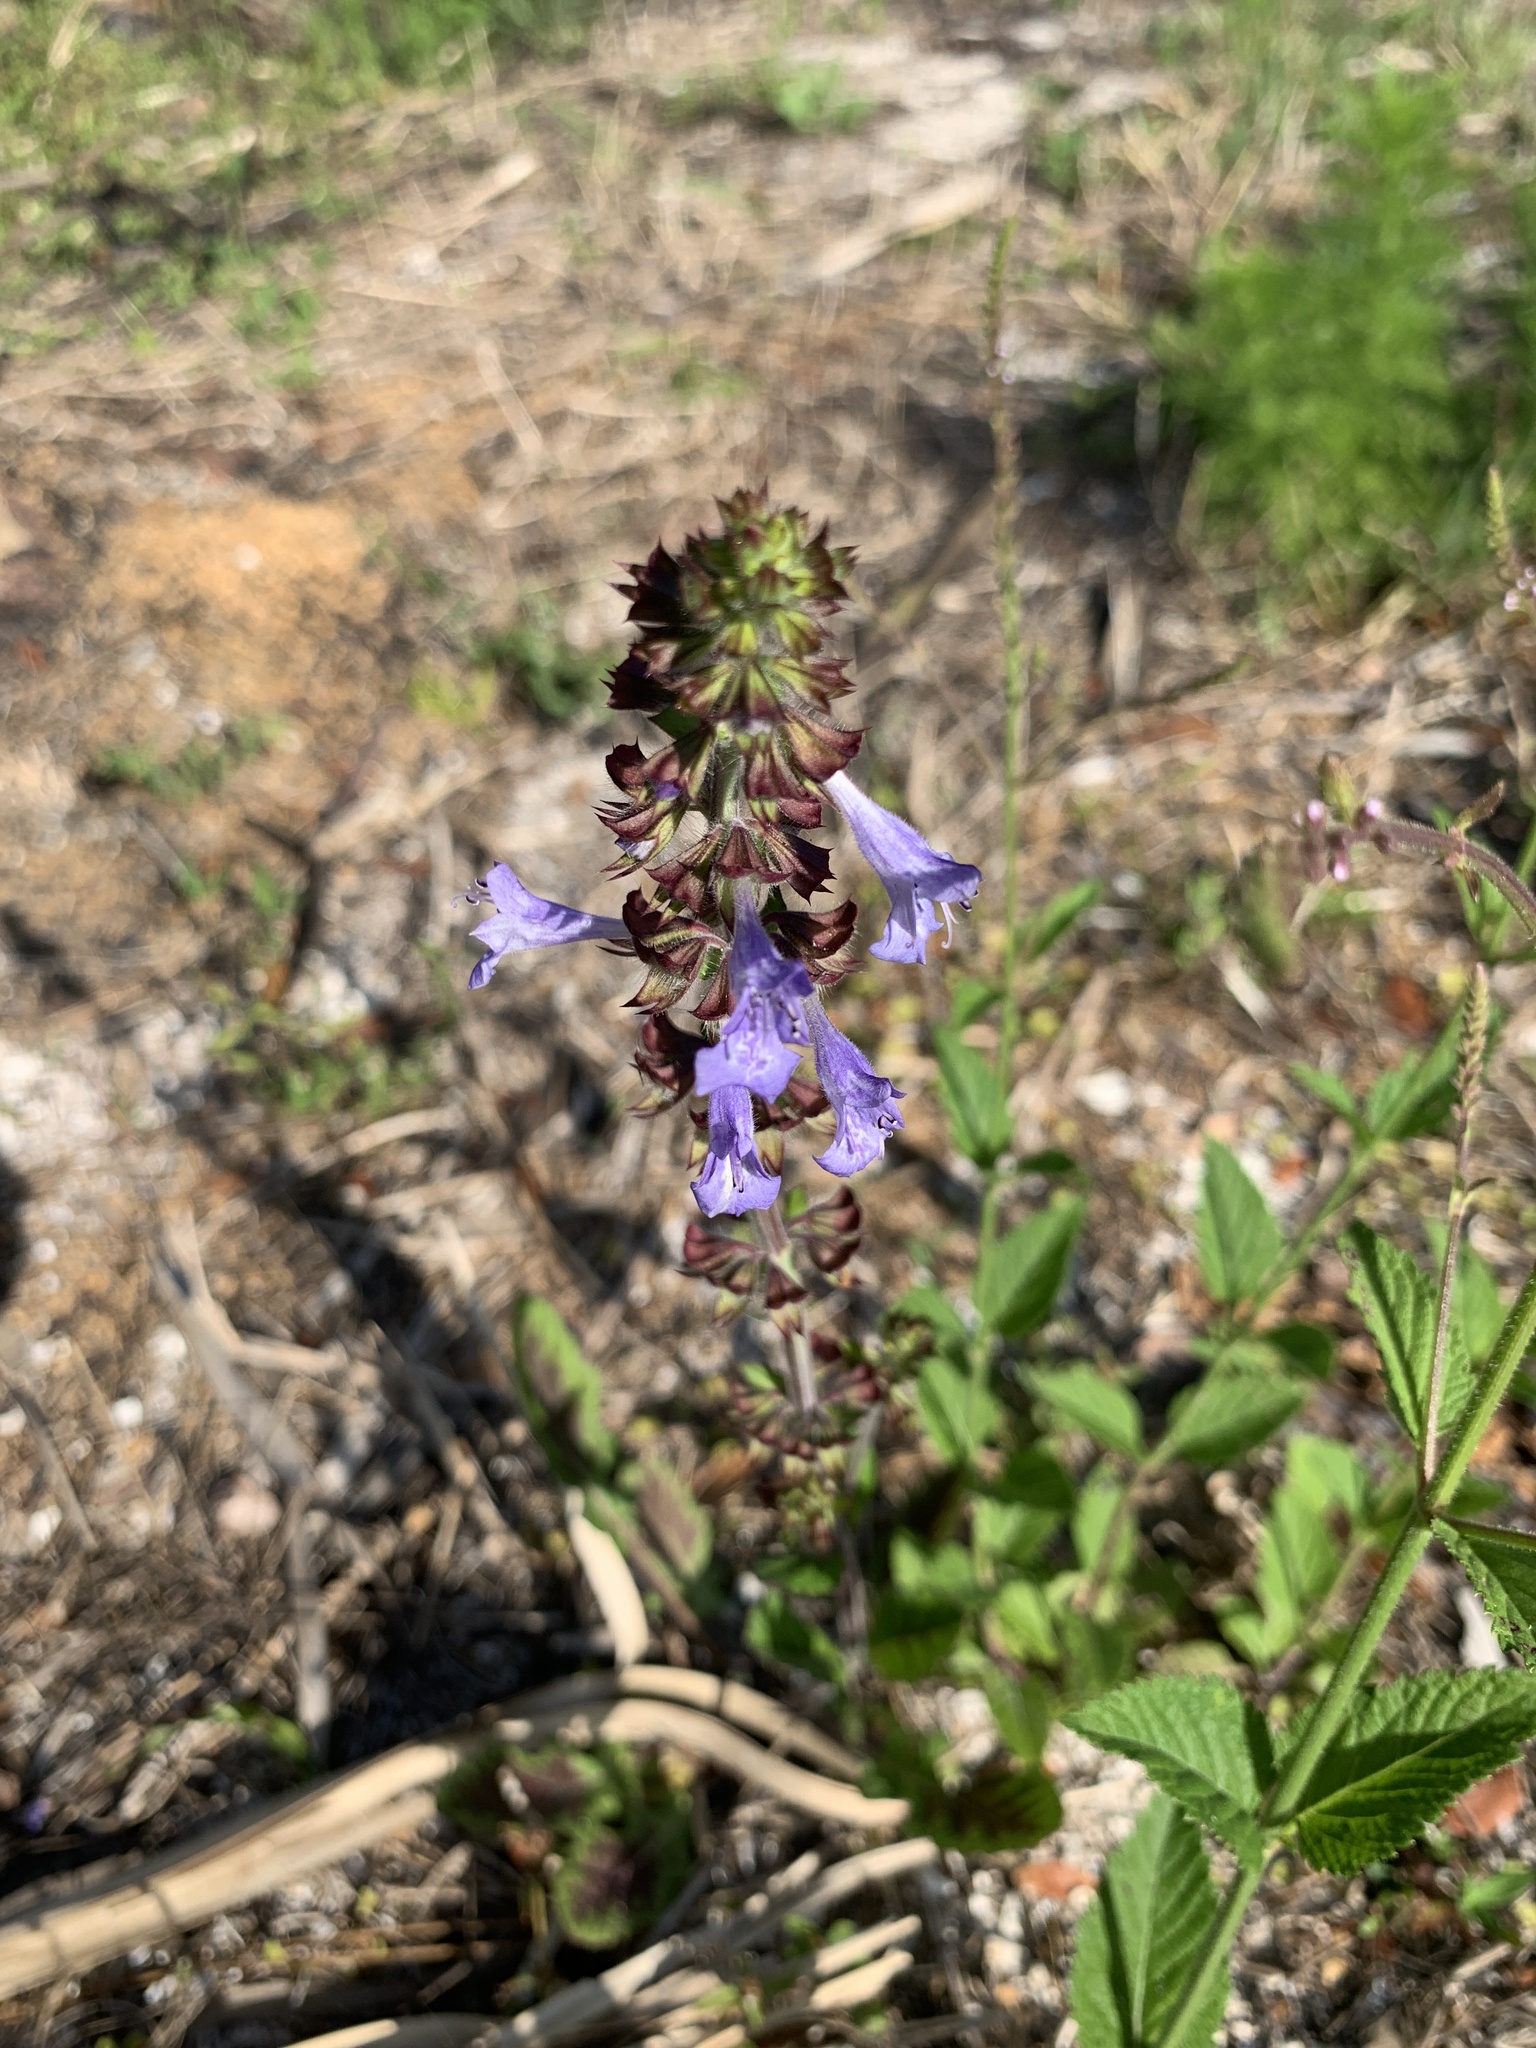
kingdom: Plantae
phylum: Tracheophyta
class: Magnoliopsida
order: Lamiales
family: Lamiaceae
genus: Salvia
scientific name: Salvia lyrata
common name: Cancerweed
